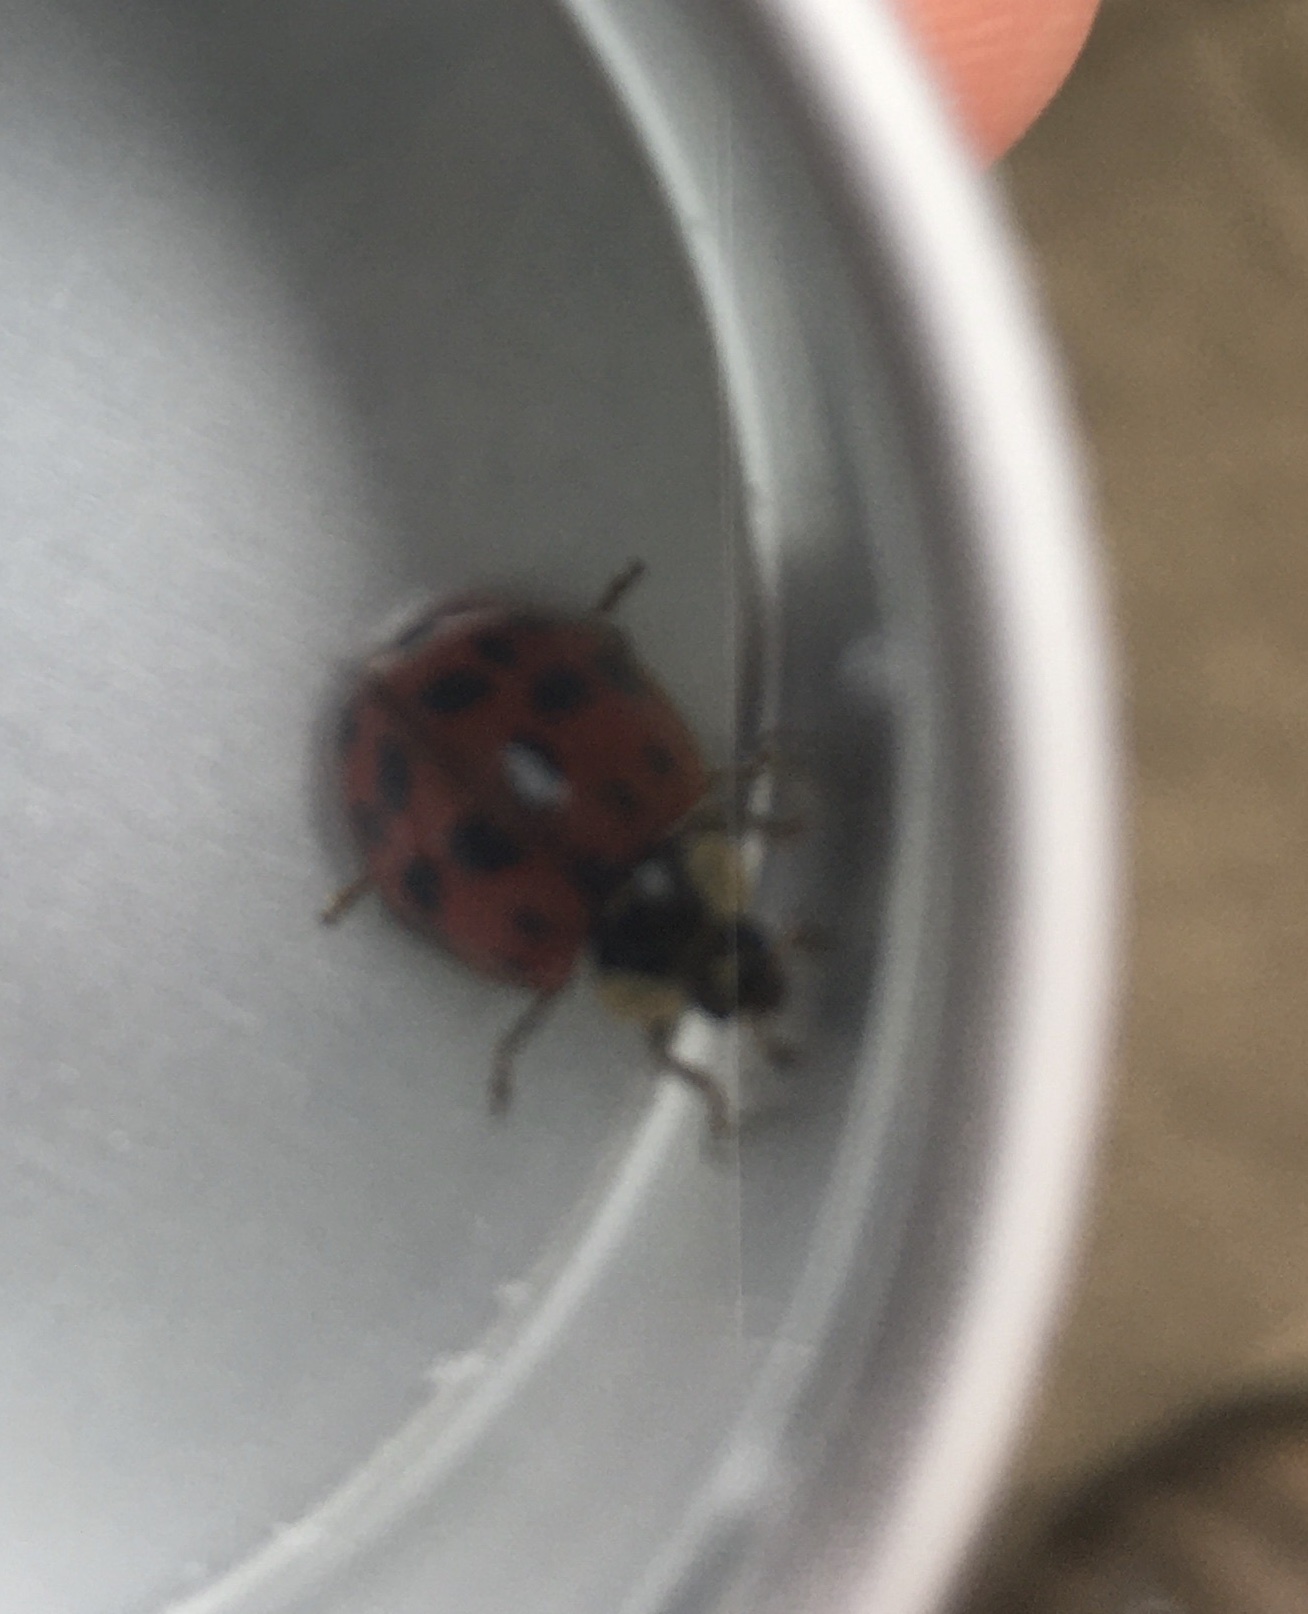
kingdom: Animalia
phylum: Arthropoda
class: Insecta
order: Coleoptera
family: Coccinellidae
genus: Harmonia
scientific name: Harmonia axyridis
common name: Harlequin ladybird
